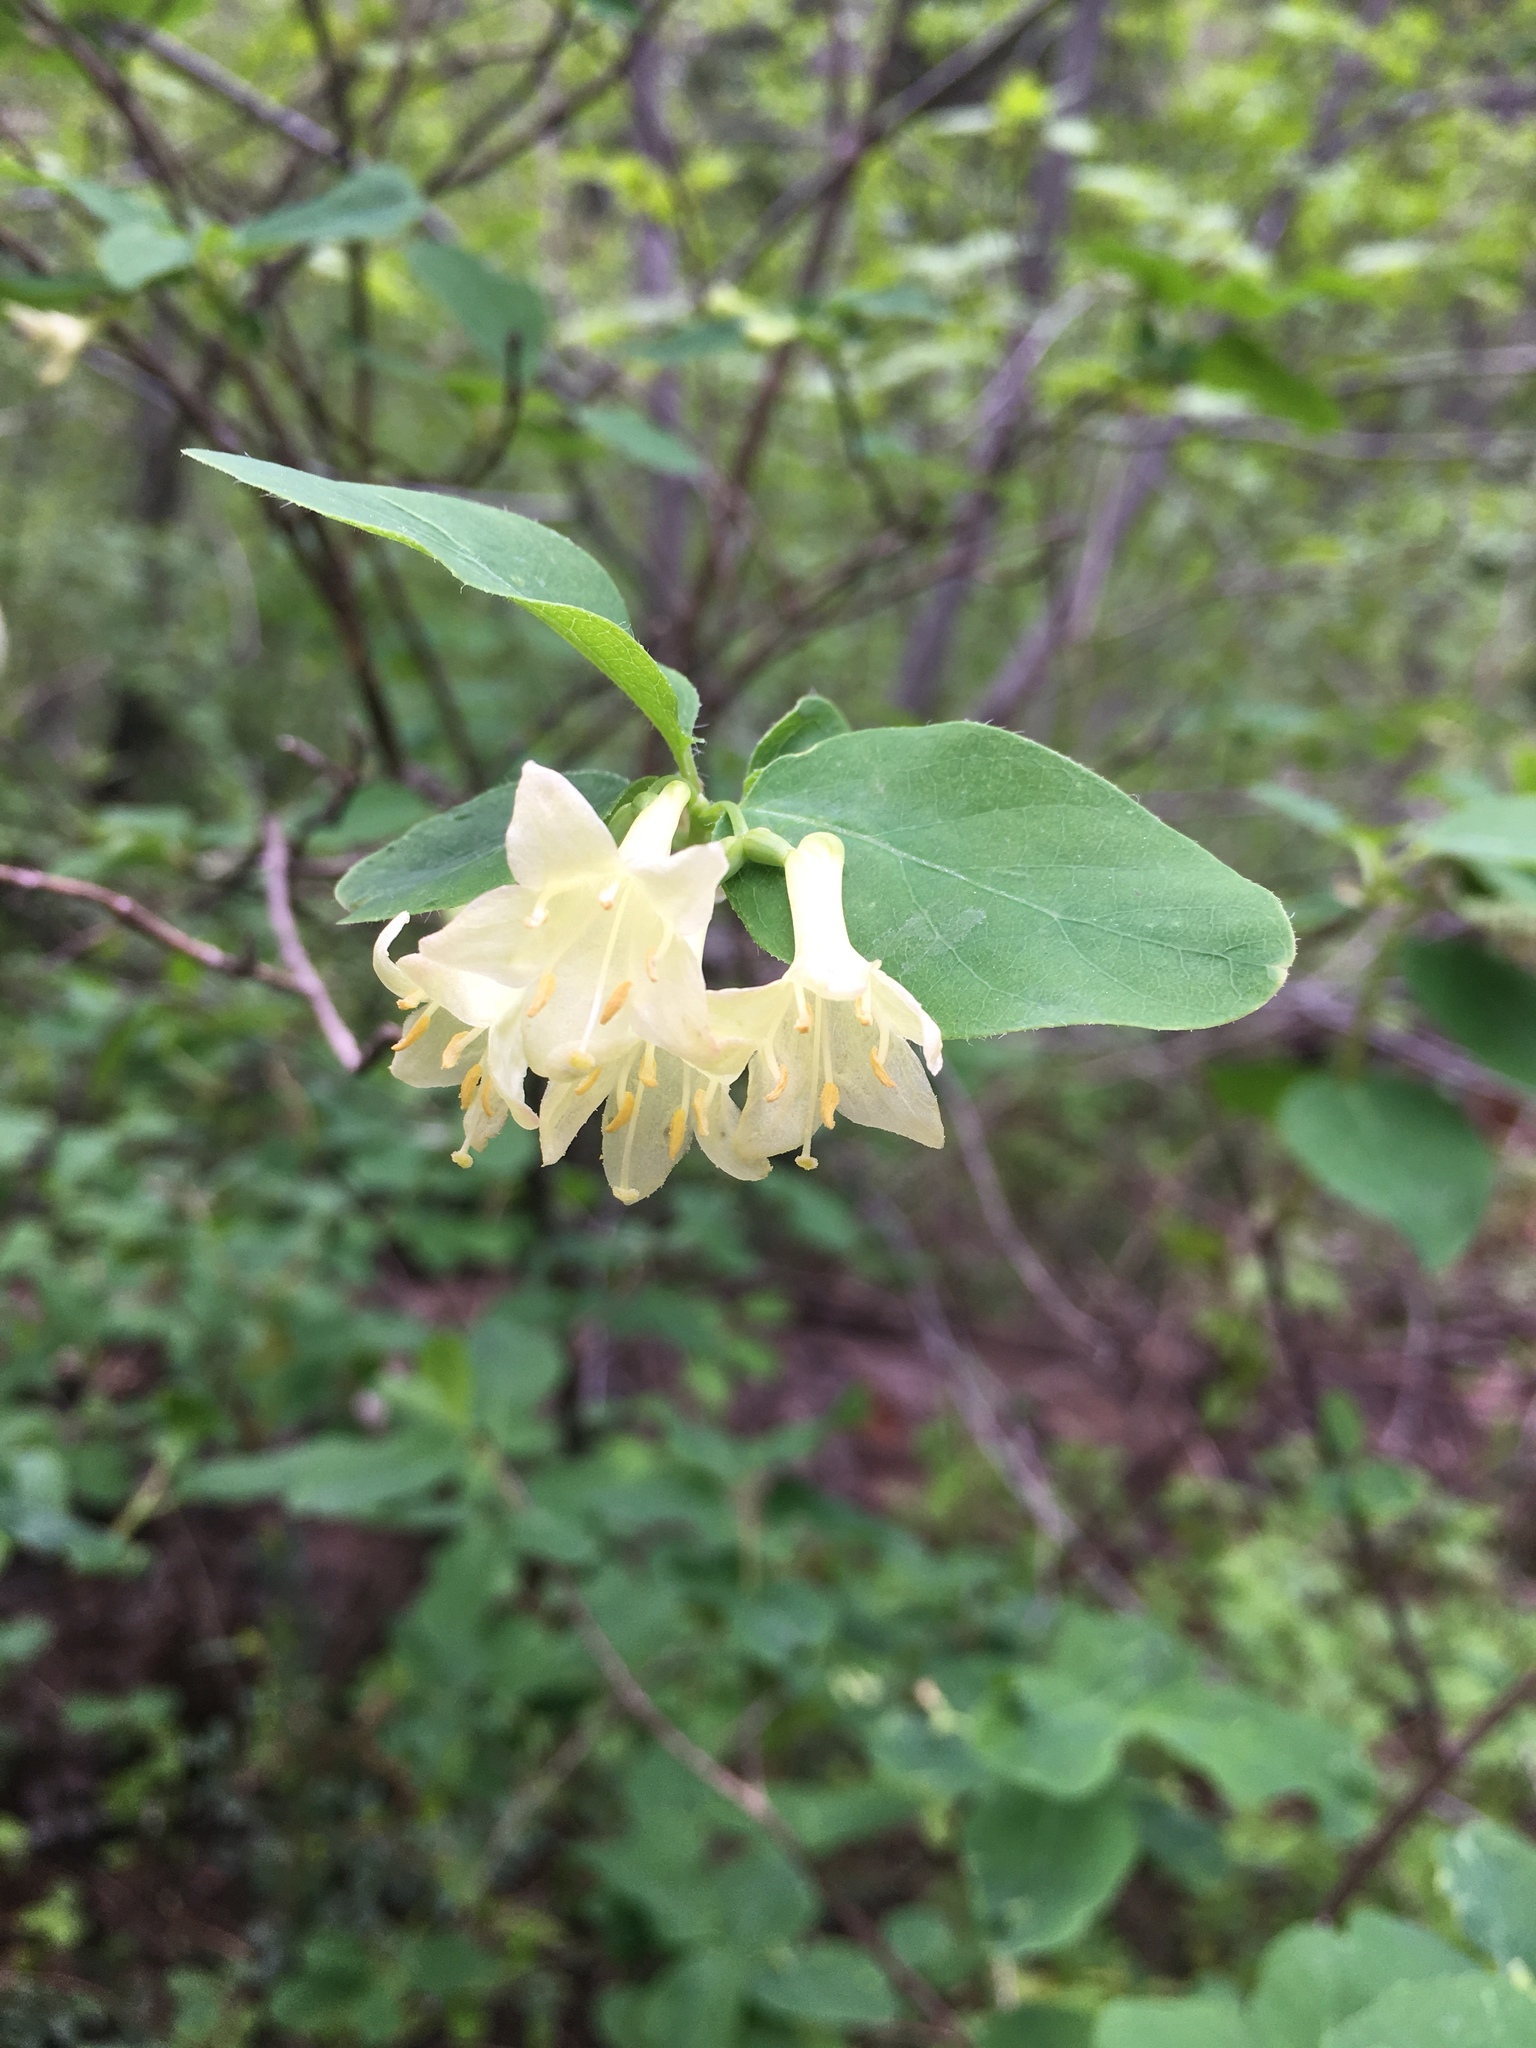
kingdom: Plantae
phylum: Tracheophyta
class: Magnoliopsida
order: Dipsacales
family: Caprifoliaceae
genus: Lonicera
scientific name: Lonicera utahensis
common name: Utah honeysuckle
